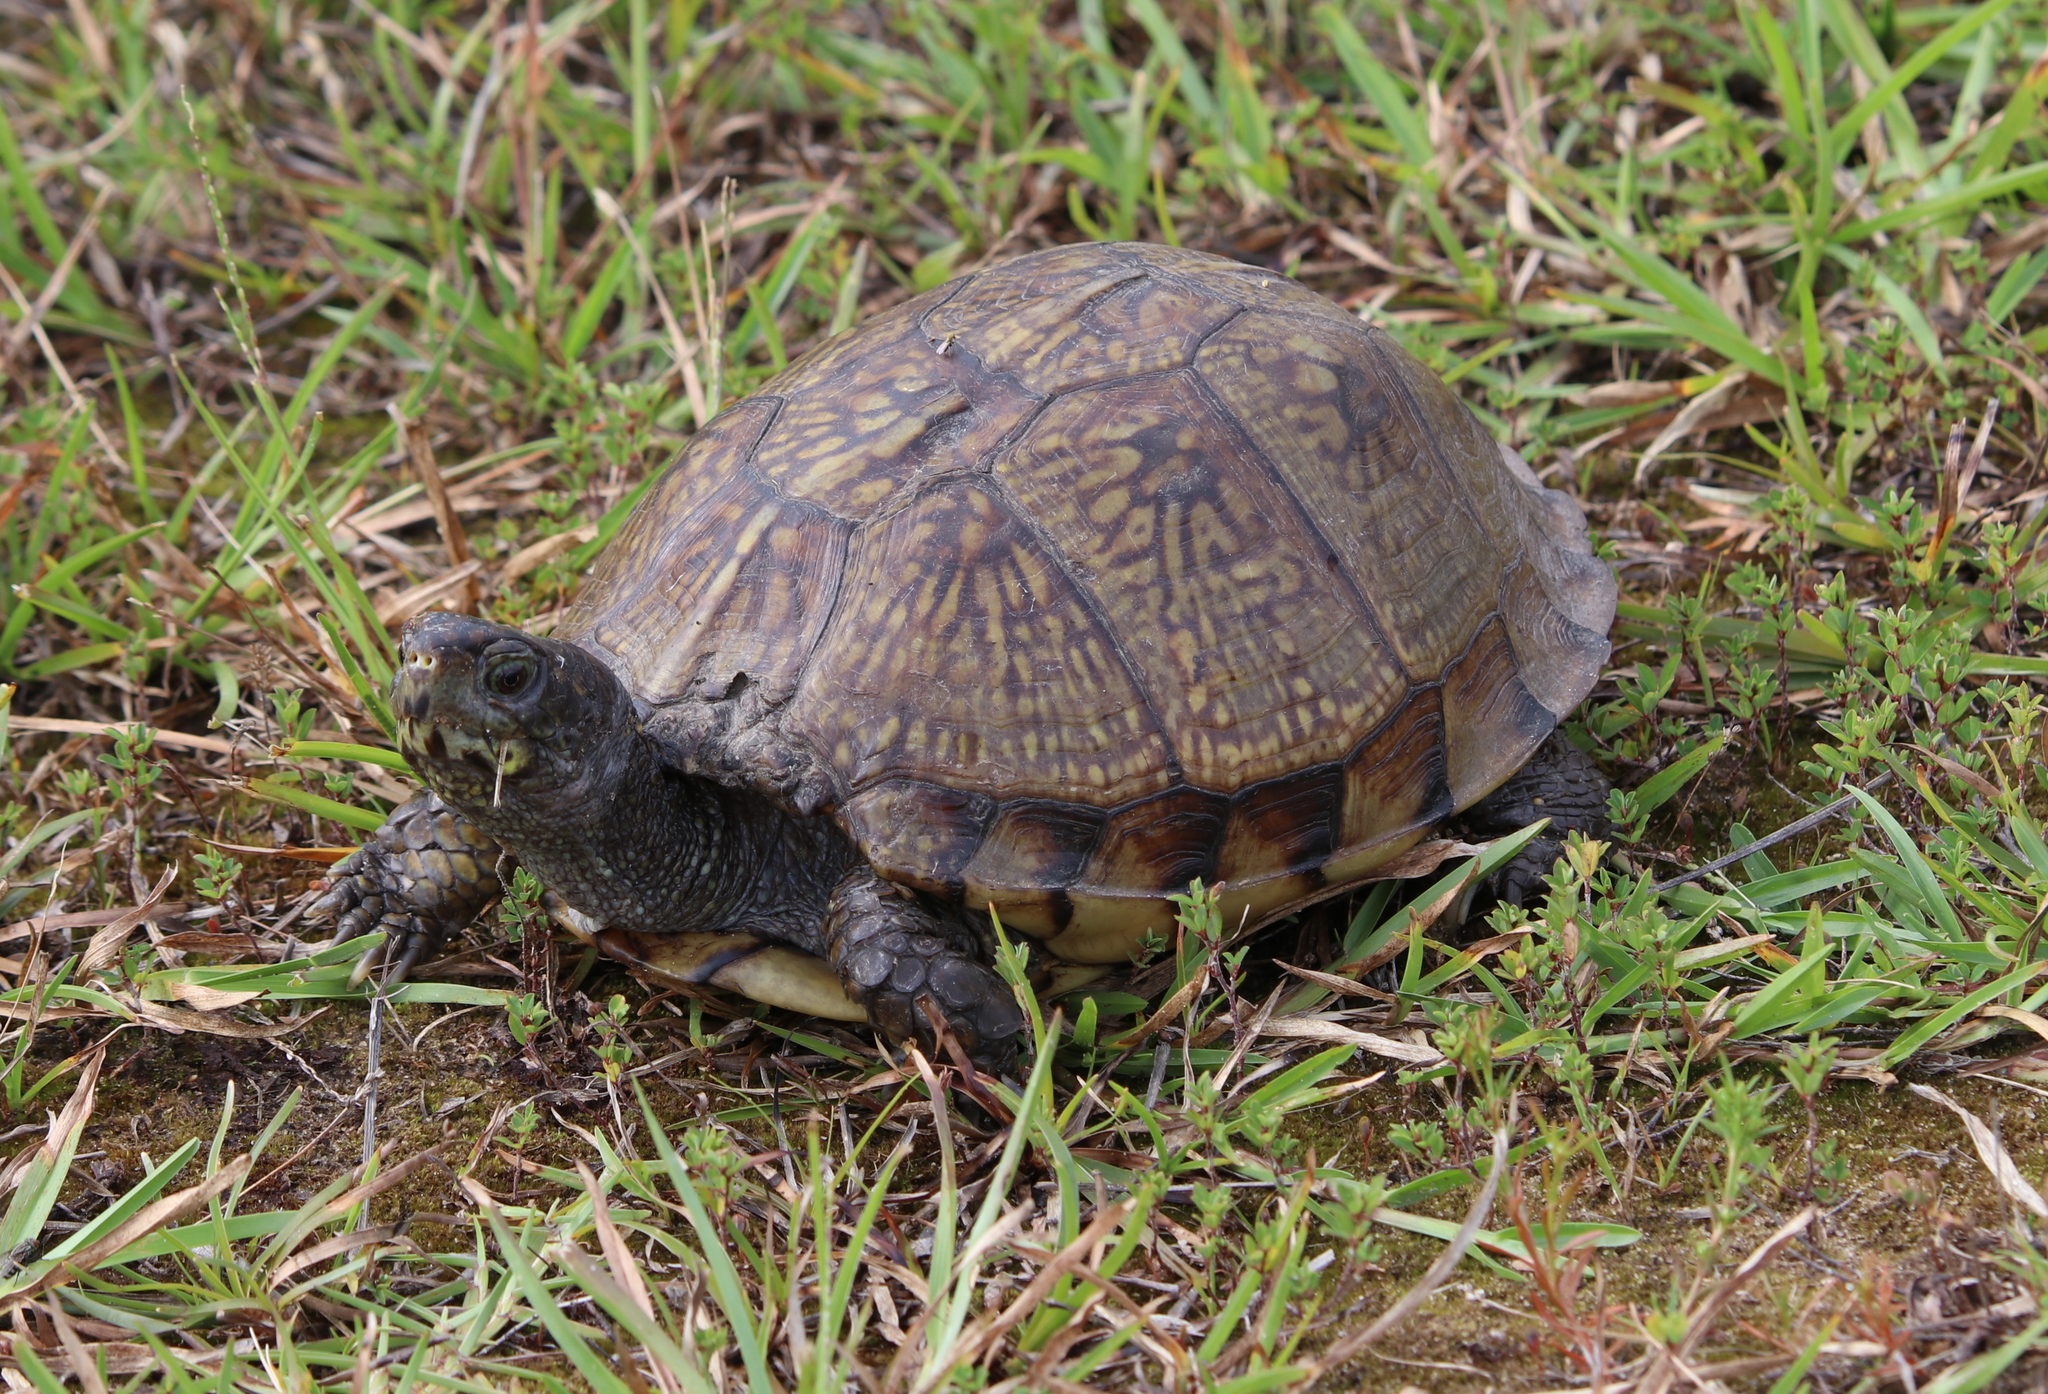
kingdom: Animalia
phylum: Chordata
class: Testudines
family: Emydidae
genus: Terrapene
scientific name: Terrapene carolina
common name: Common box turtle
